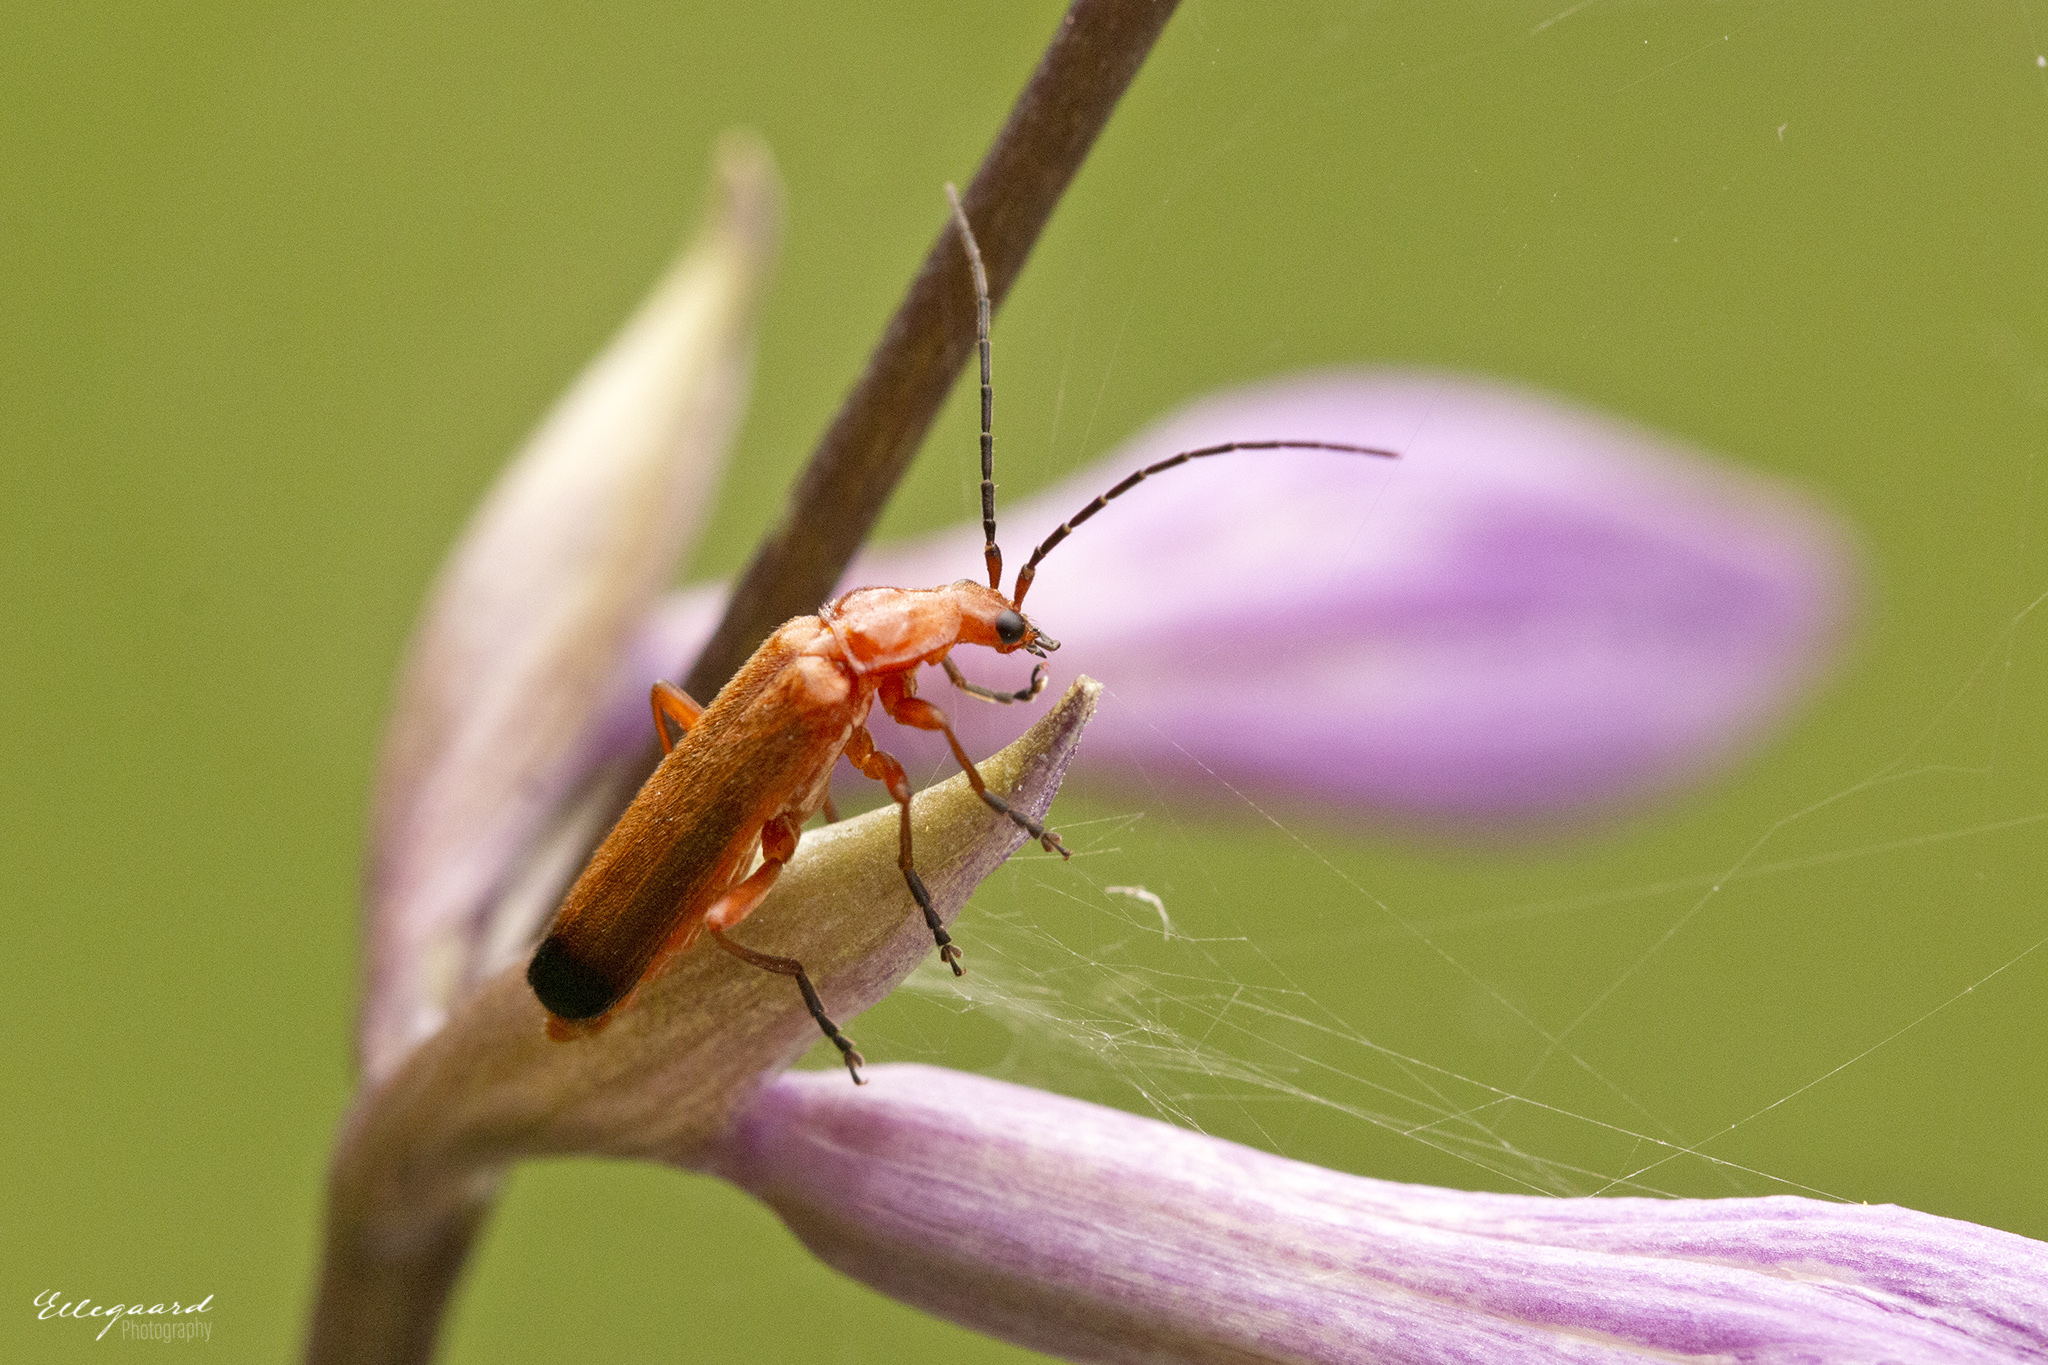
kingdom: Animalia
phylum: Arthropoda
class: Insecta
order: Coleoptera
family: Cantharidae
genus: Rhagonycha
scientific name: Rhagonycha fulva
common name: Common red soldier beetle
